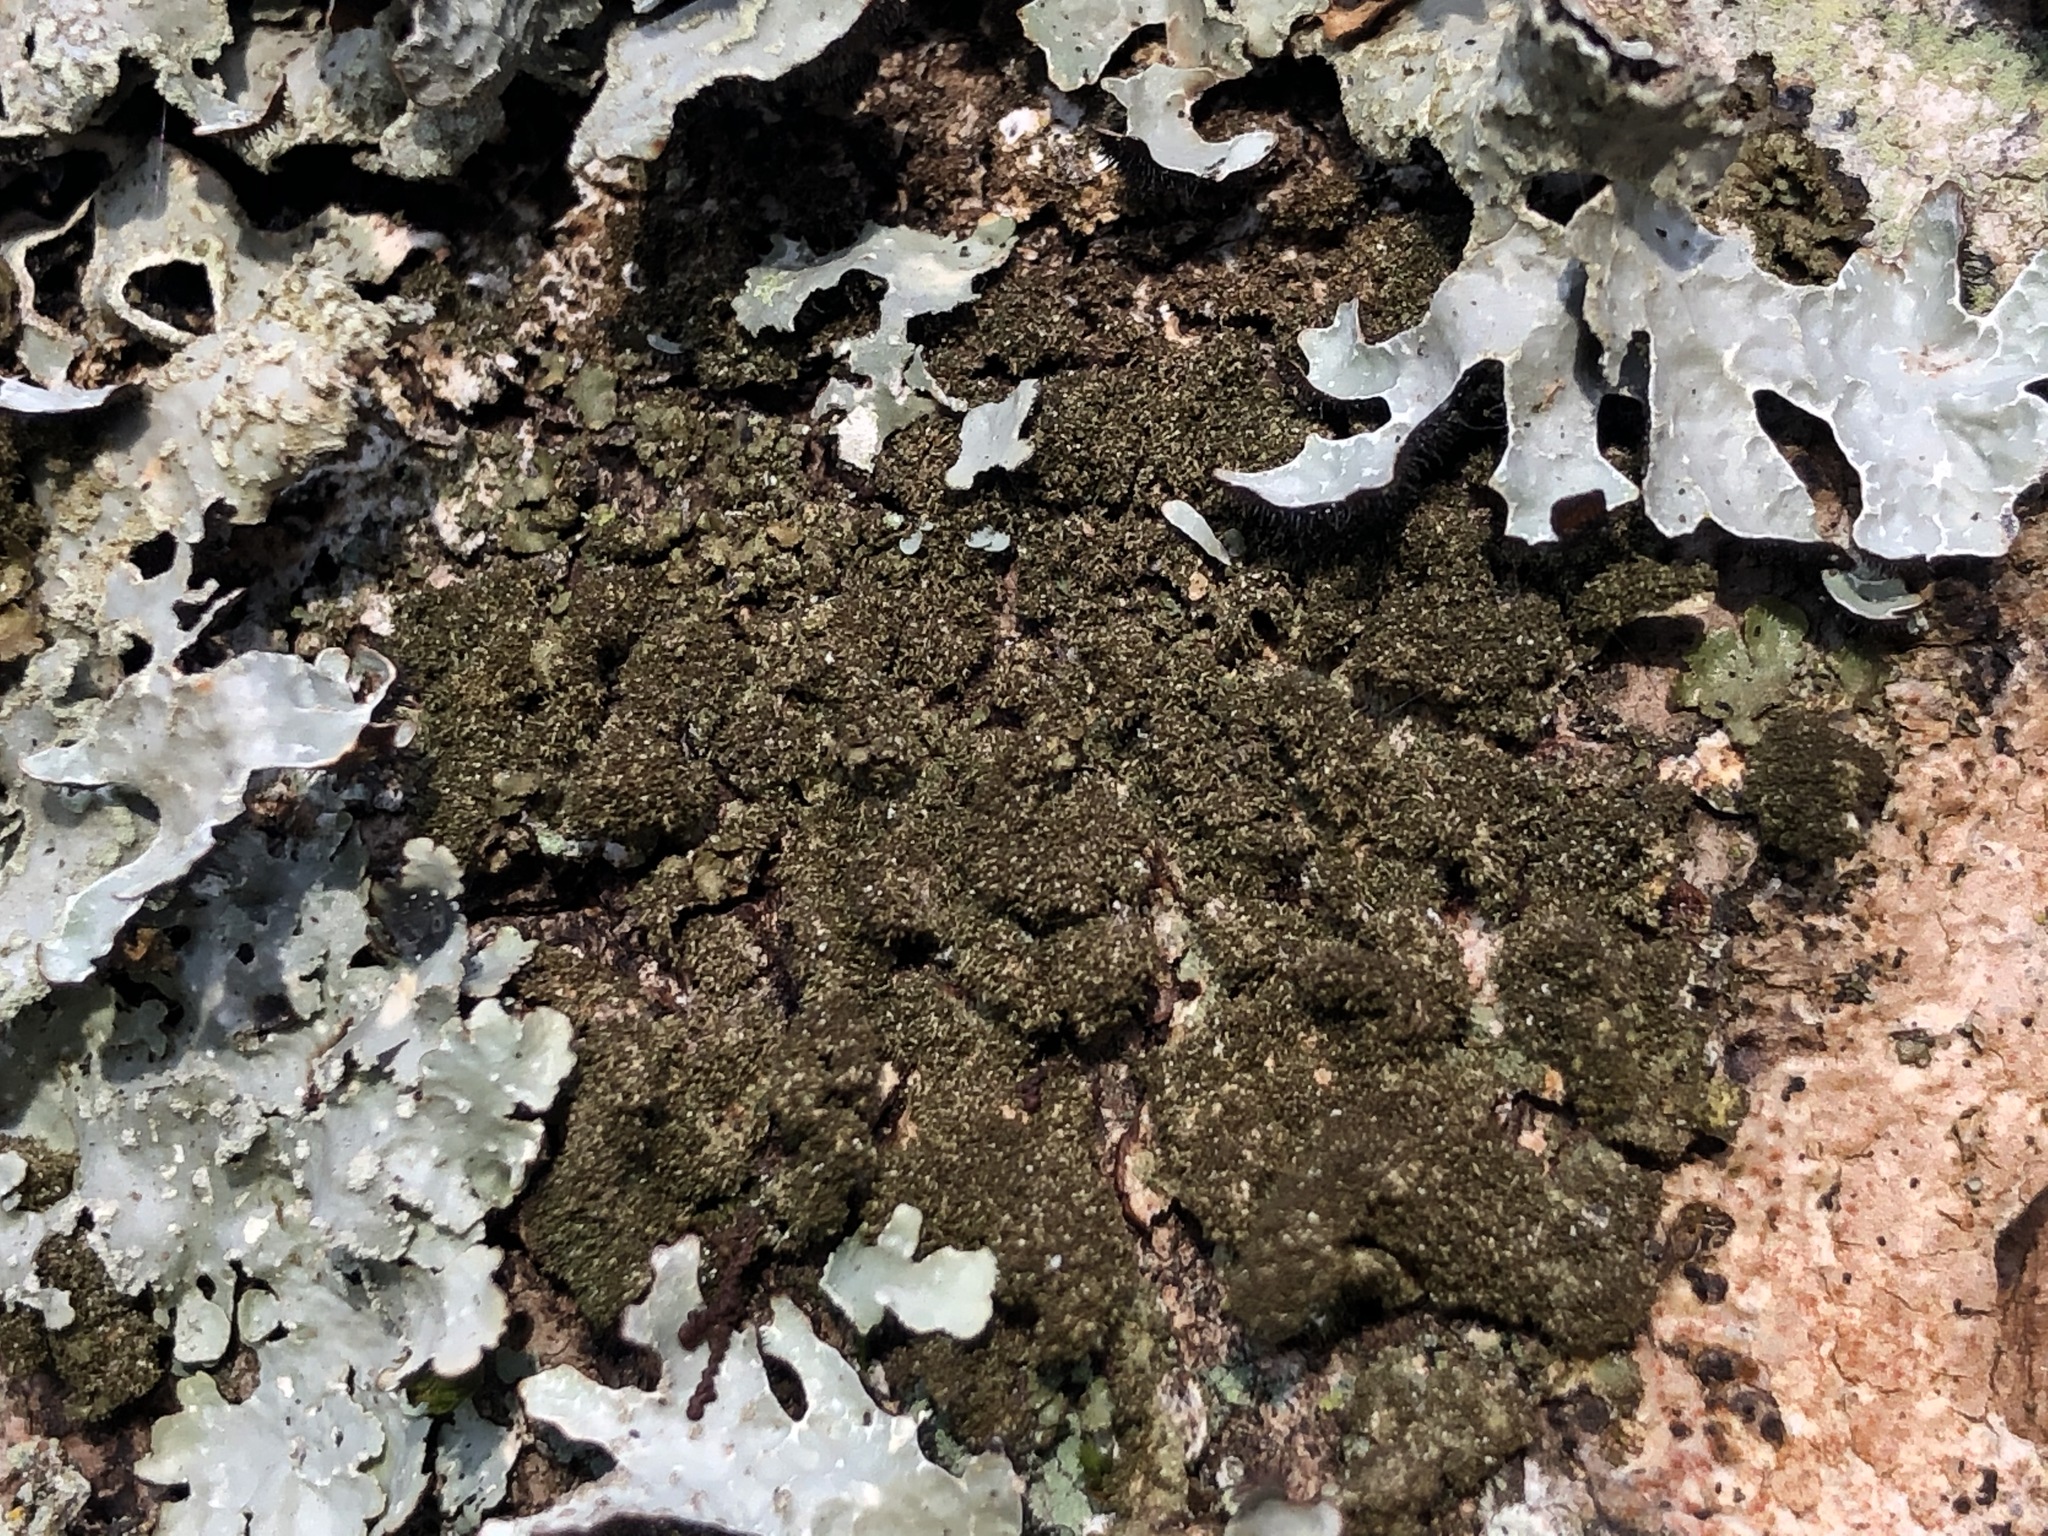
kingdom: Fungi
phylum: Ascomycota
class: Lecanoromycetes
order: Lecanorales
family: Parmeliaceae
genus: Melanelixia
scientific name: Melanelixia glabratula
